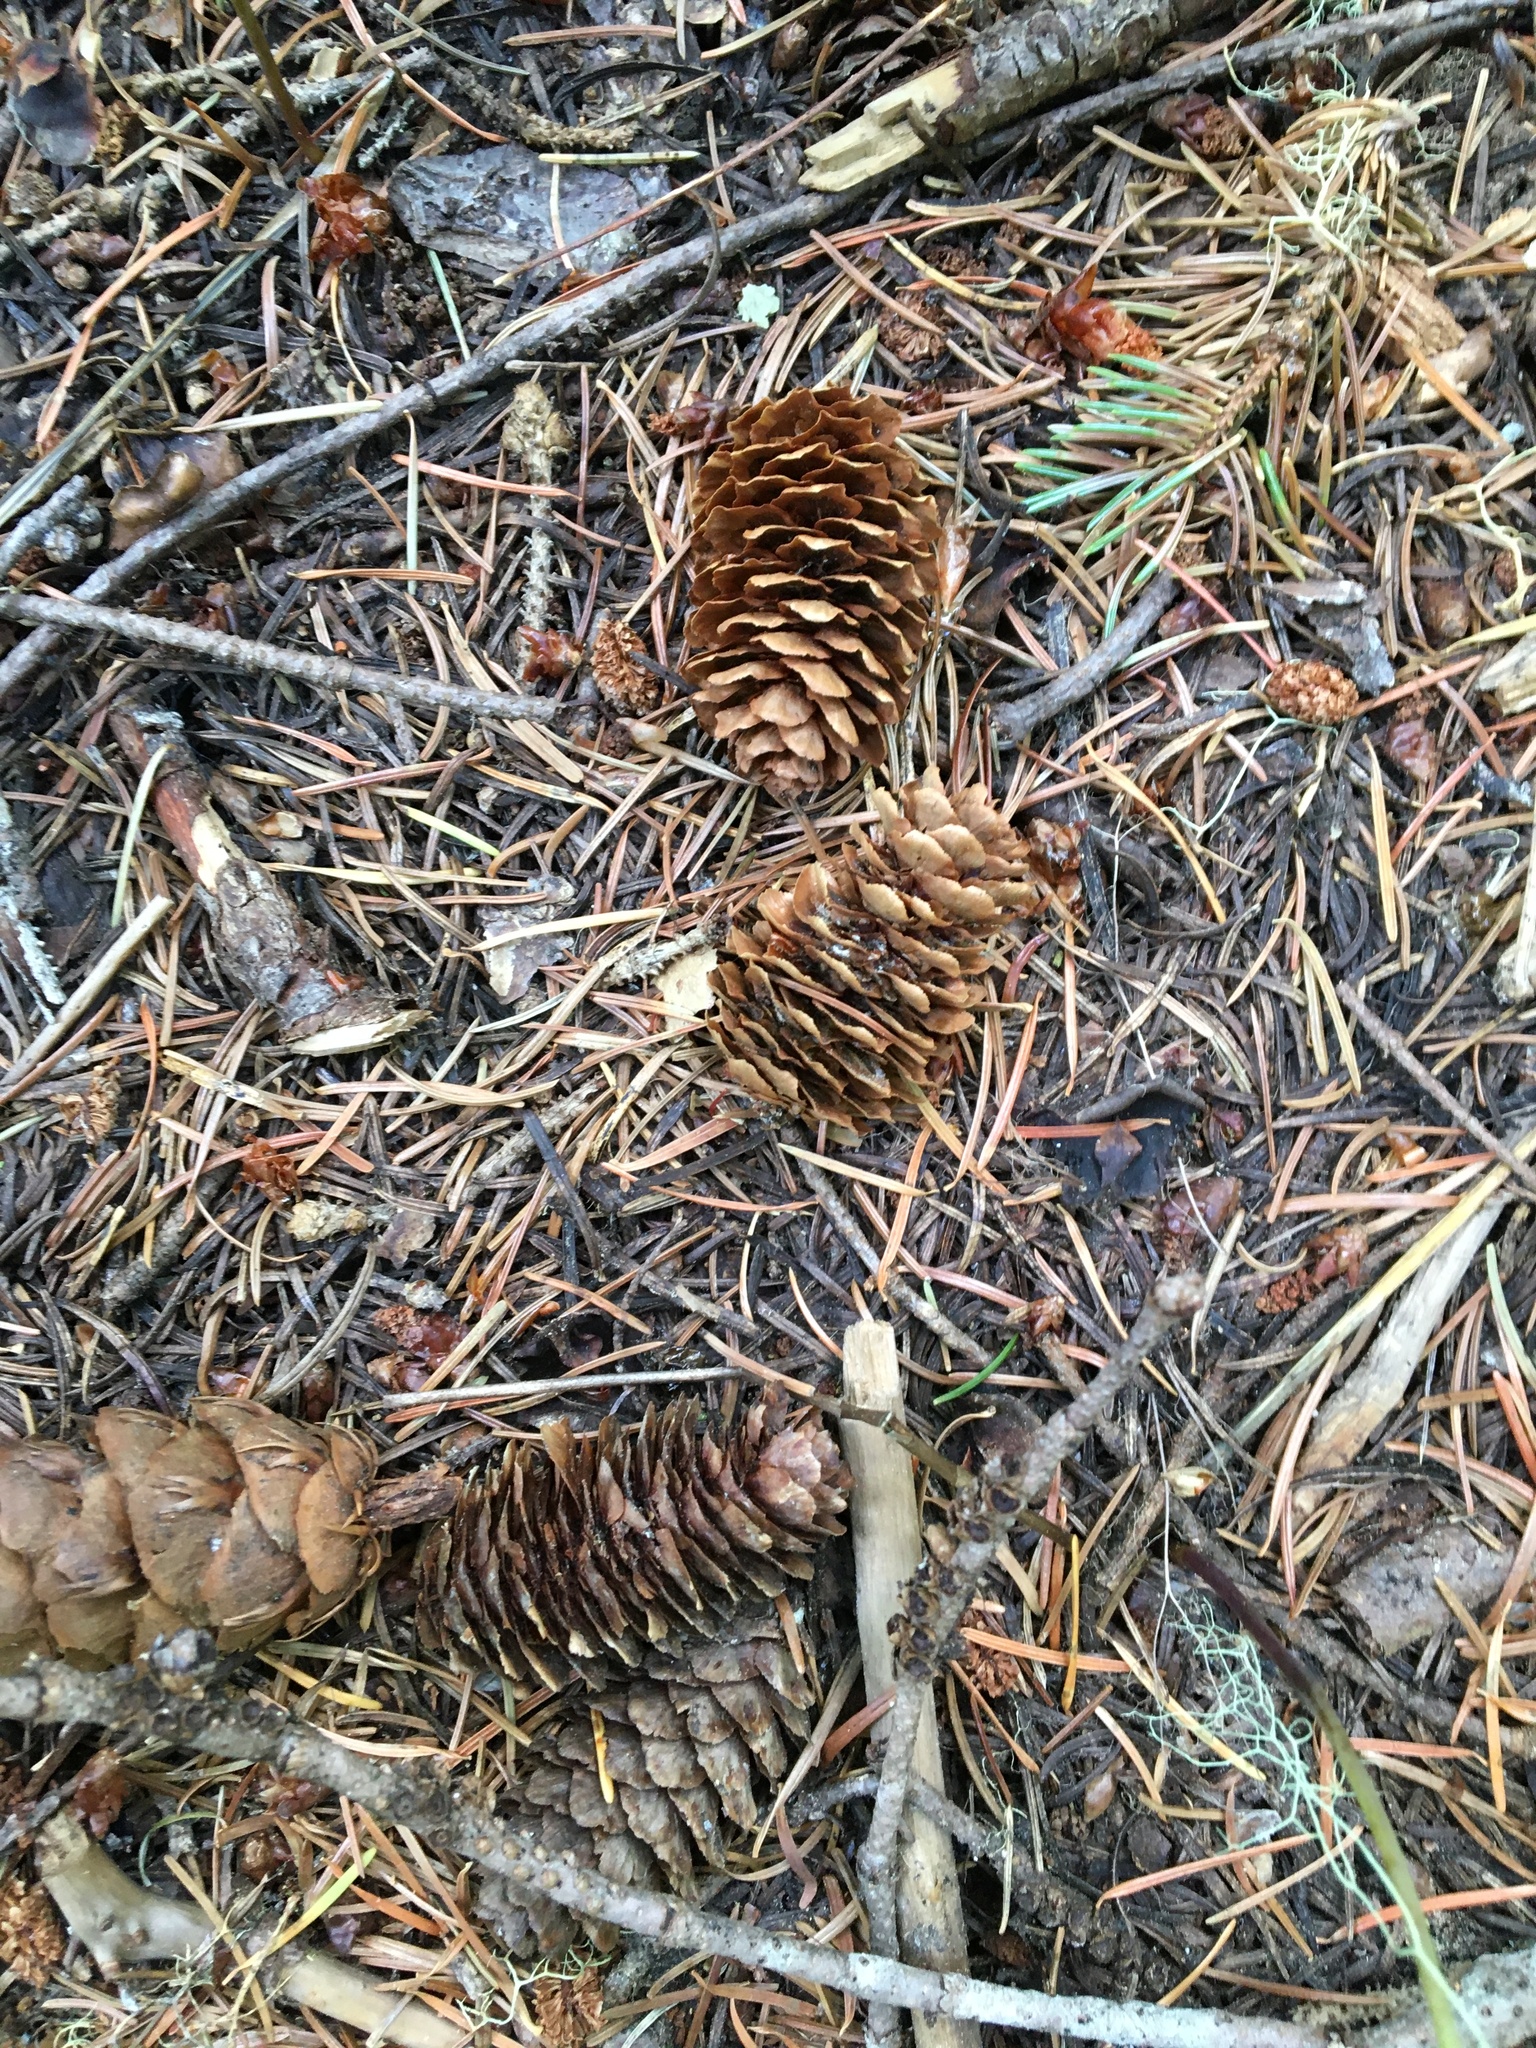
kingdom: Plantae
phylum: Tracheophyta
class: Pinopsida
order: Pinales
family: Pinaceae
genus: Picea
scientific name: Picea engelmannii
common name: Engelmann spruce
